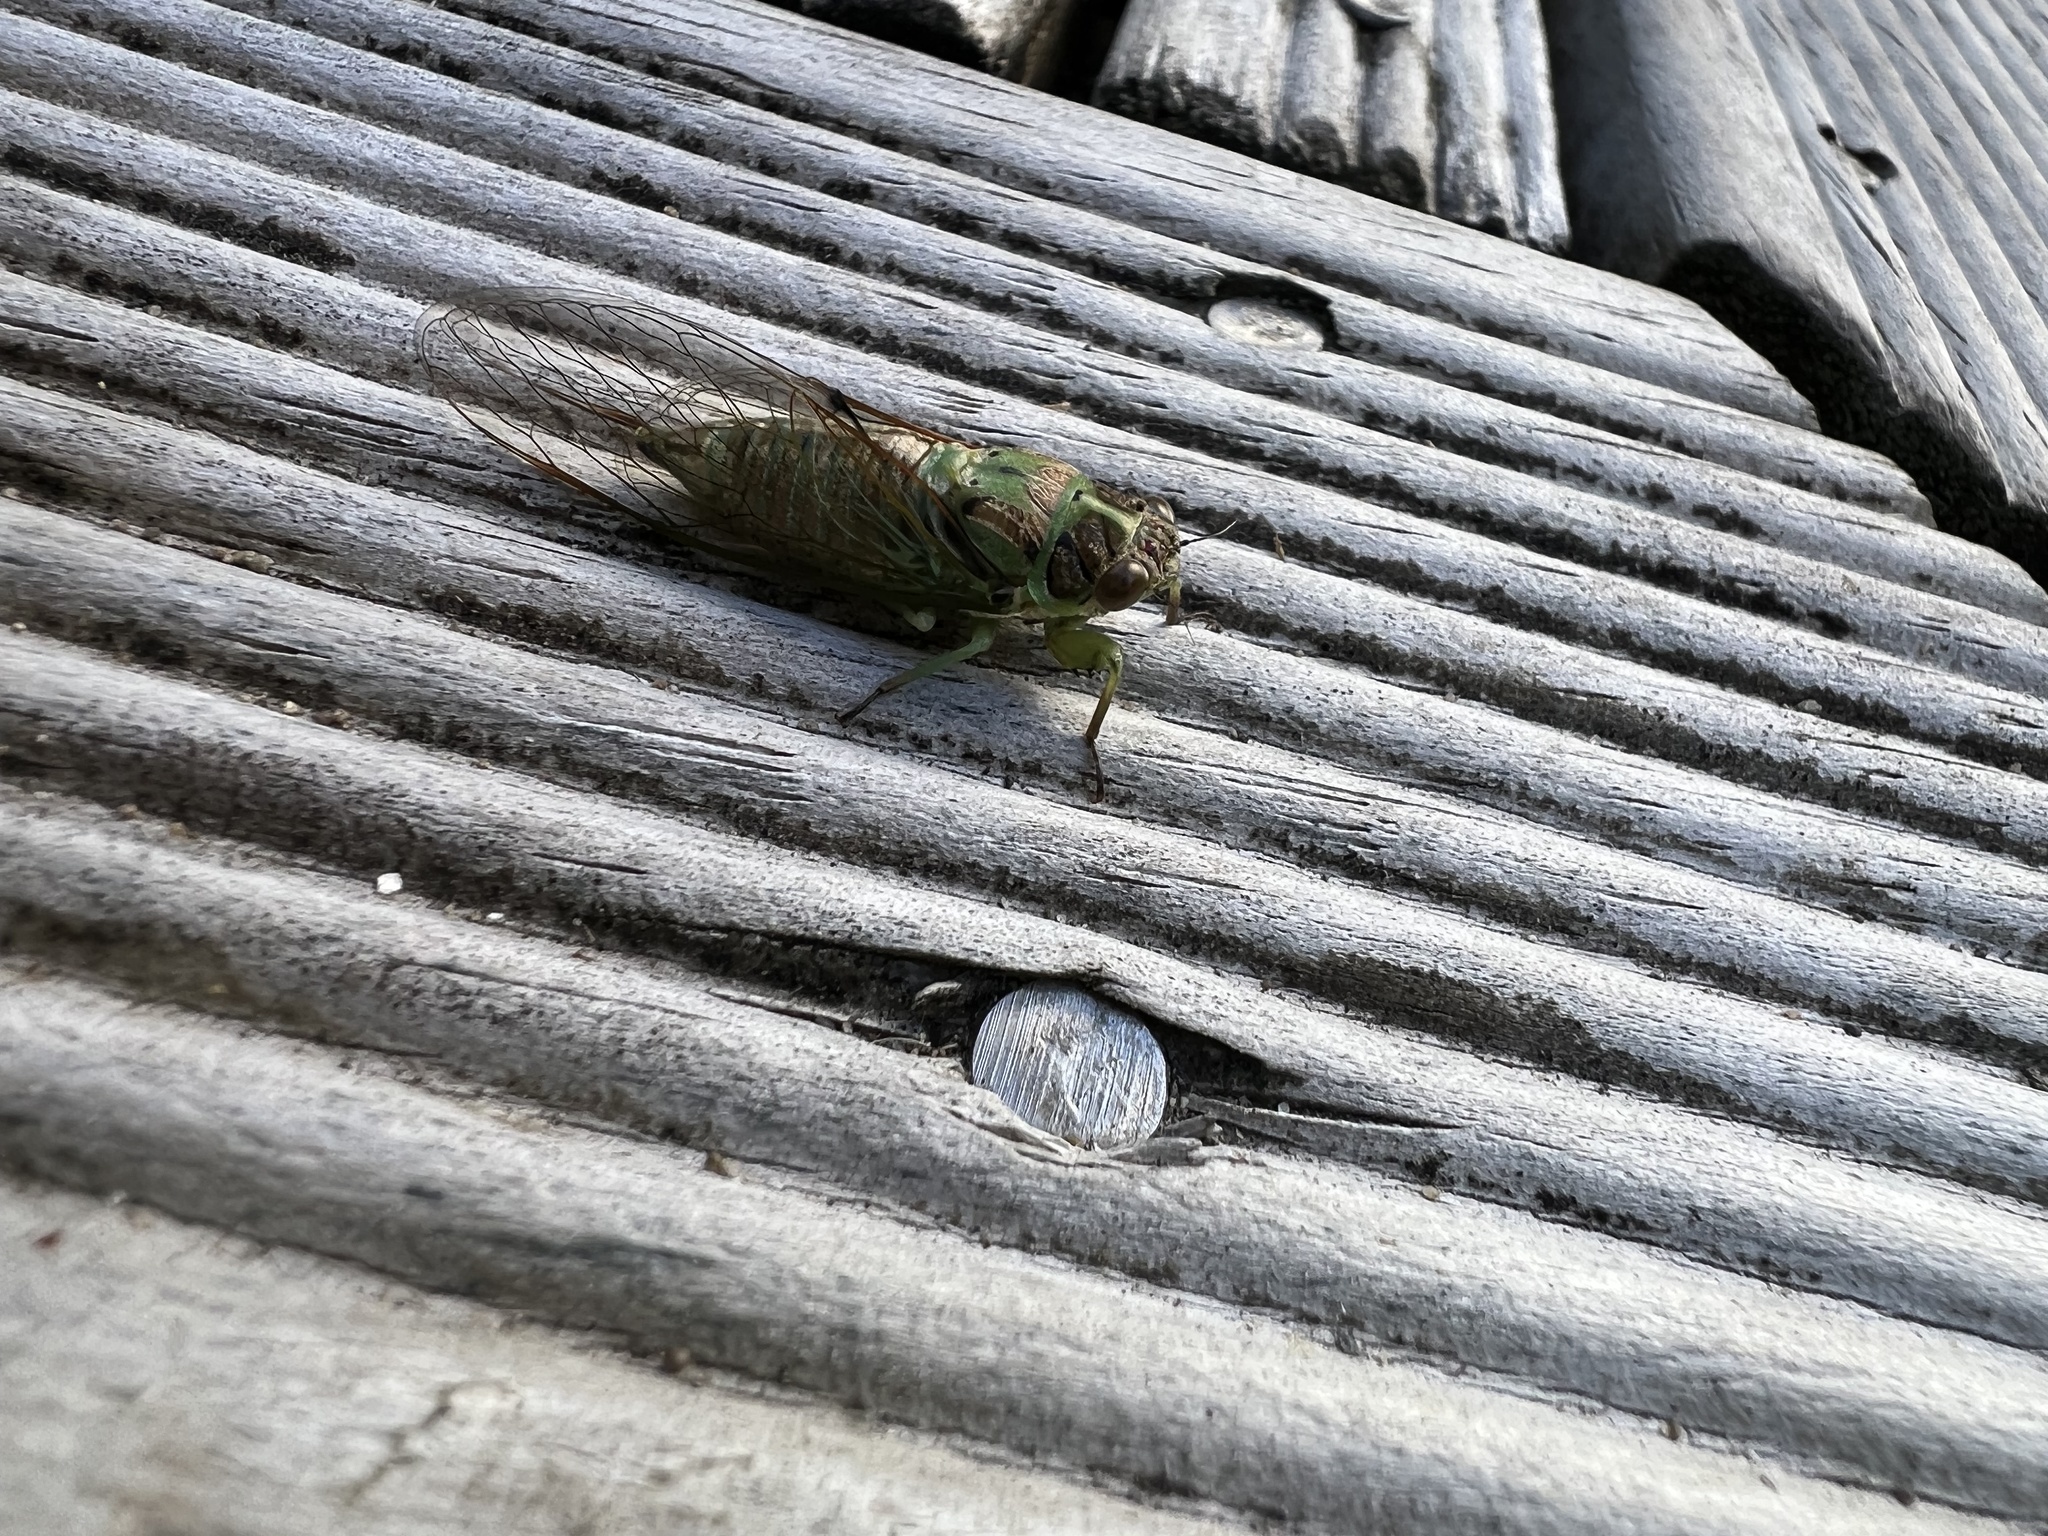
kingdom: Animalia
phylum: Arthropoda
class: Insecta
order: Hemiptera
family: Cicadidae
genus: Kikihia
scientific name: Kikihia scutellaris
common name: Lesser bronze cicada
